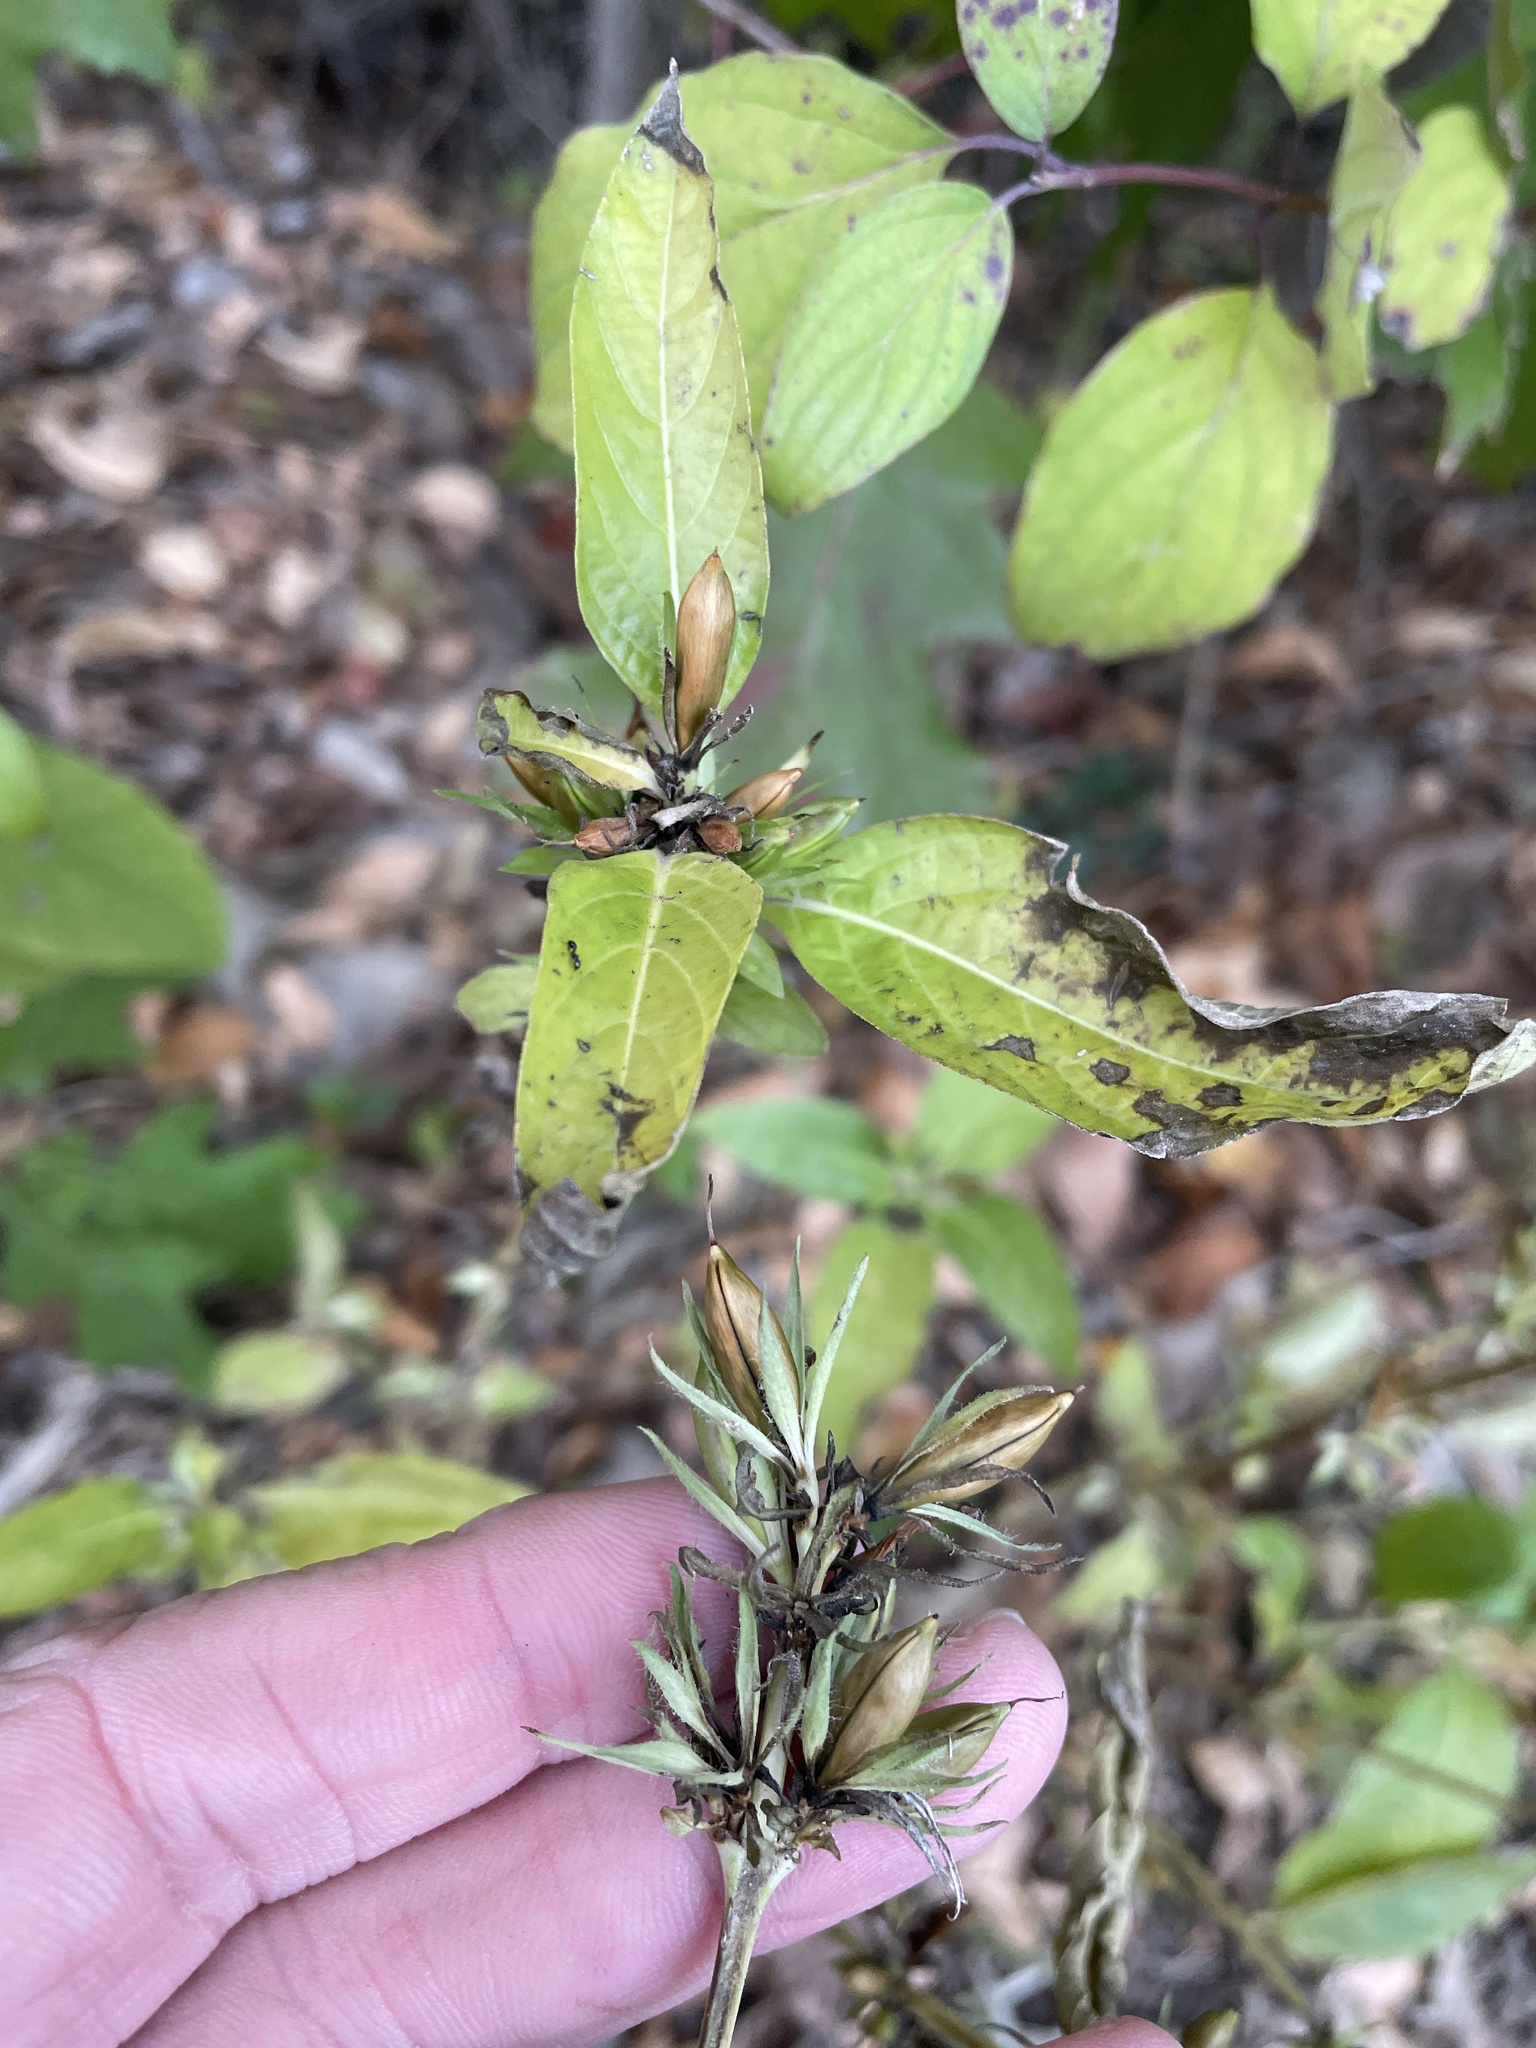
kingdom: Plantae
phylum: Tracheophyta
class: Magnoliopsida
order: Lamiales
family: Acanthaceae
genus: Ruellia
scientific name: Ruellia strepens
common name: Limestone wild petunia
